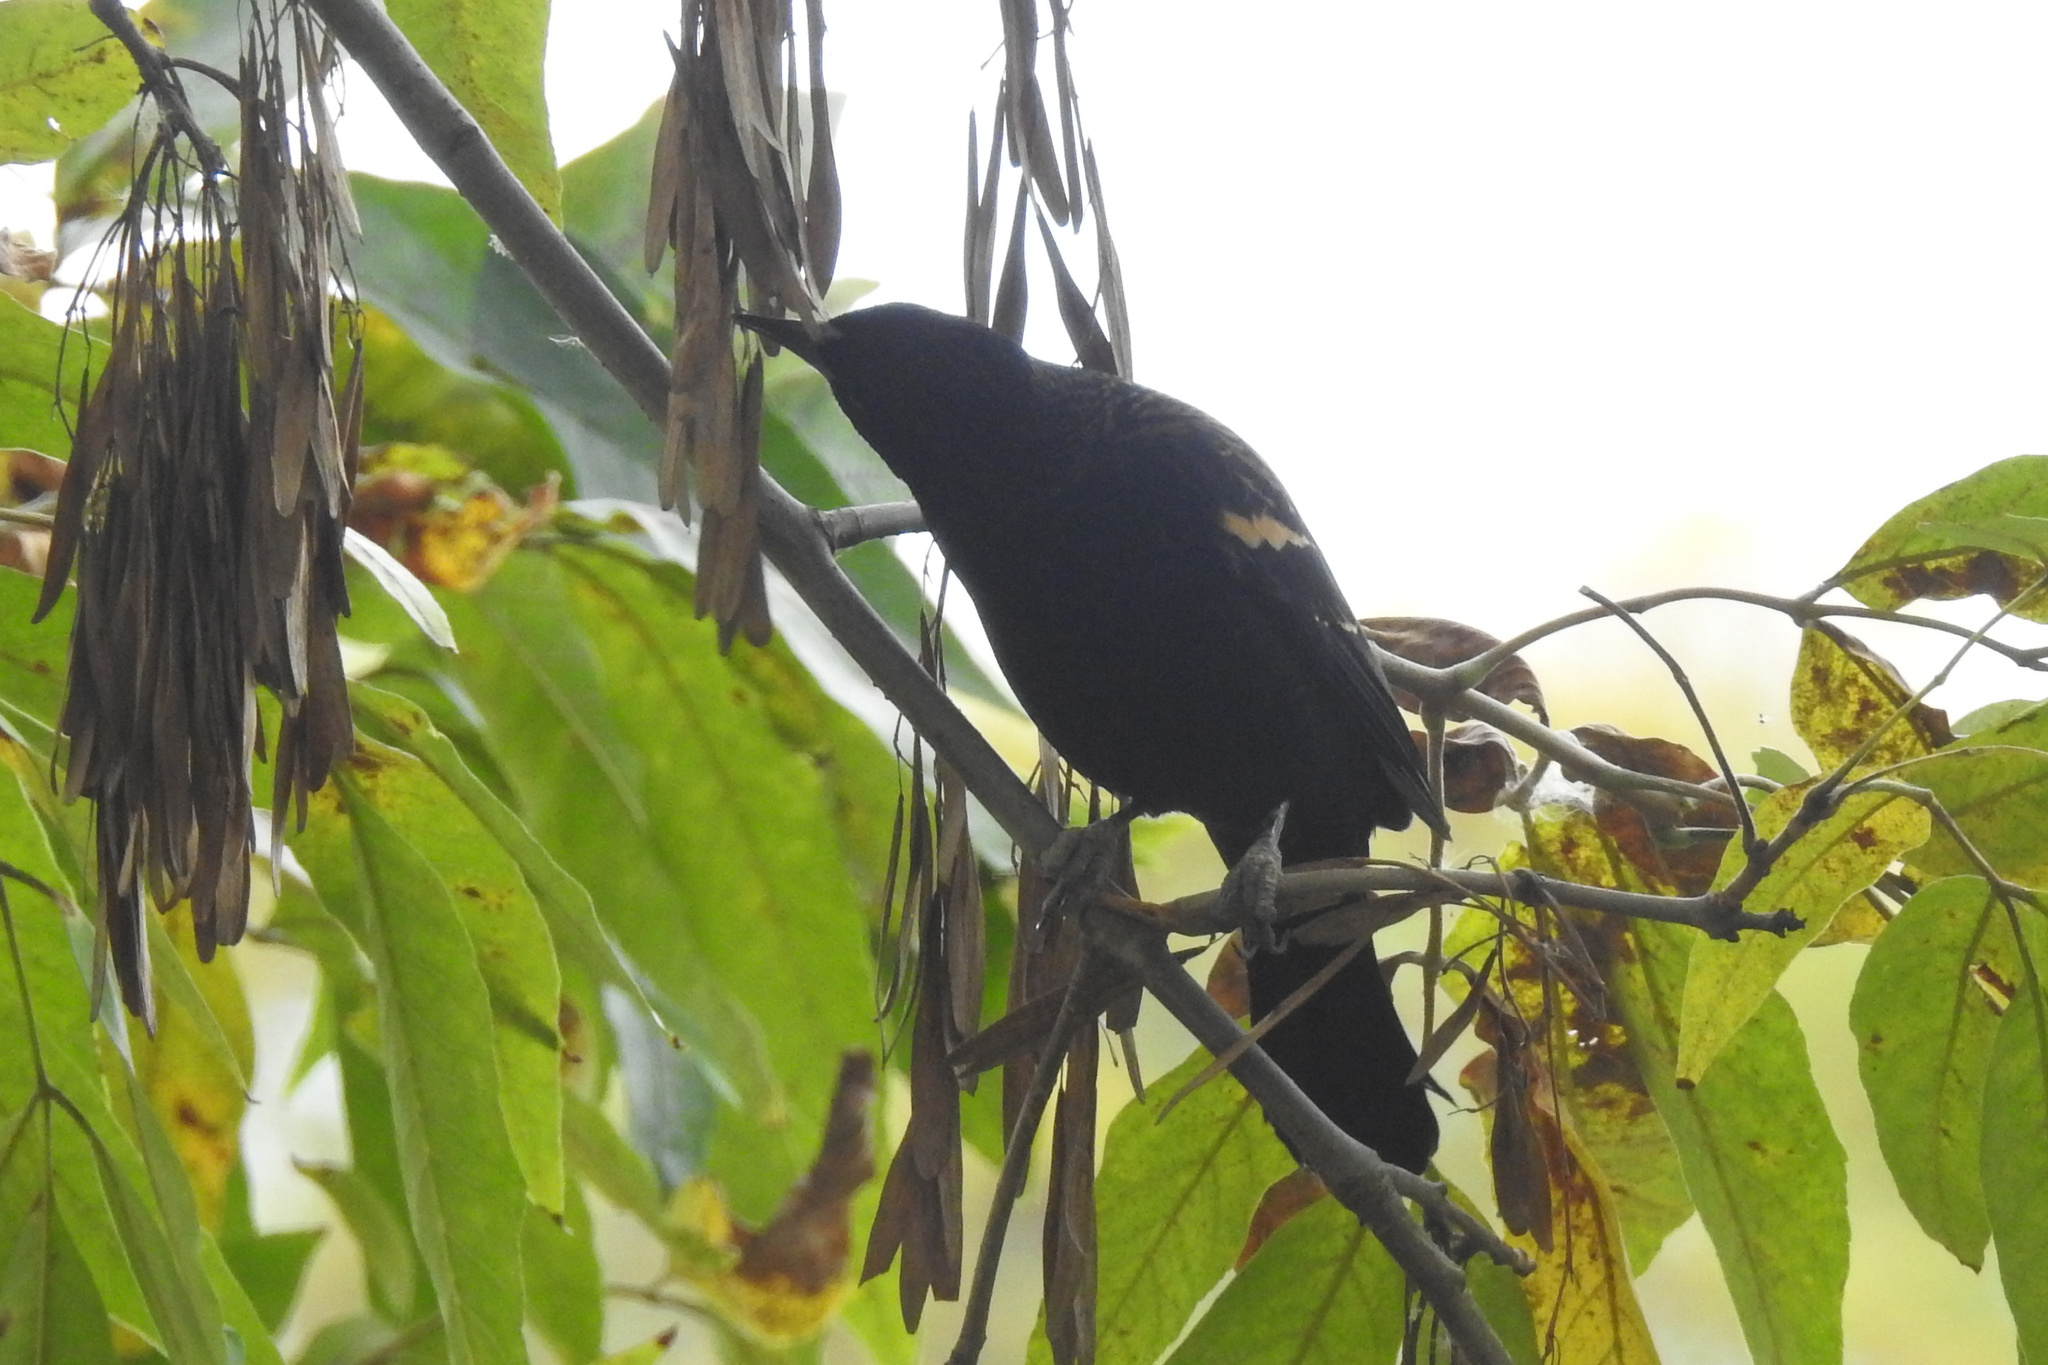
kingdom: Animalia
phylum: Chordata
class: Aves
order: Passeriformes
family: Icteridae
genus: Agelaius
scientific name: Agelaius phoeniceus
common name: Red-winged blackbird
